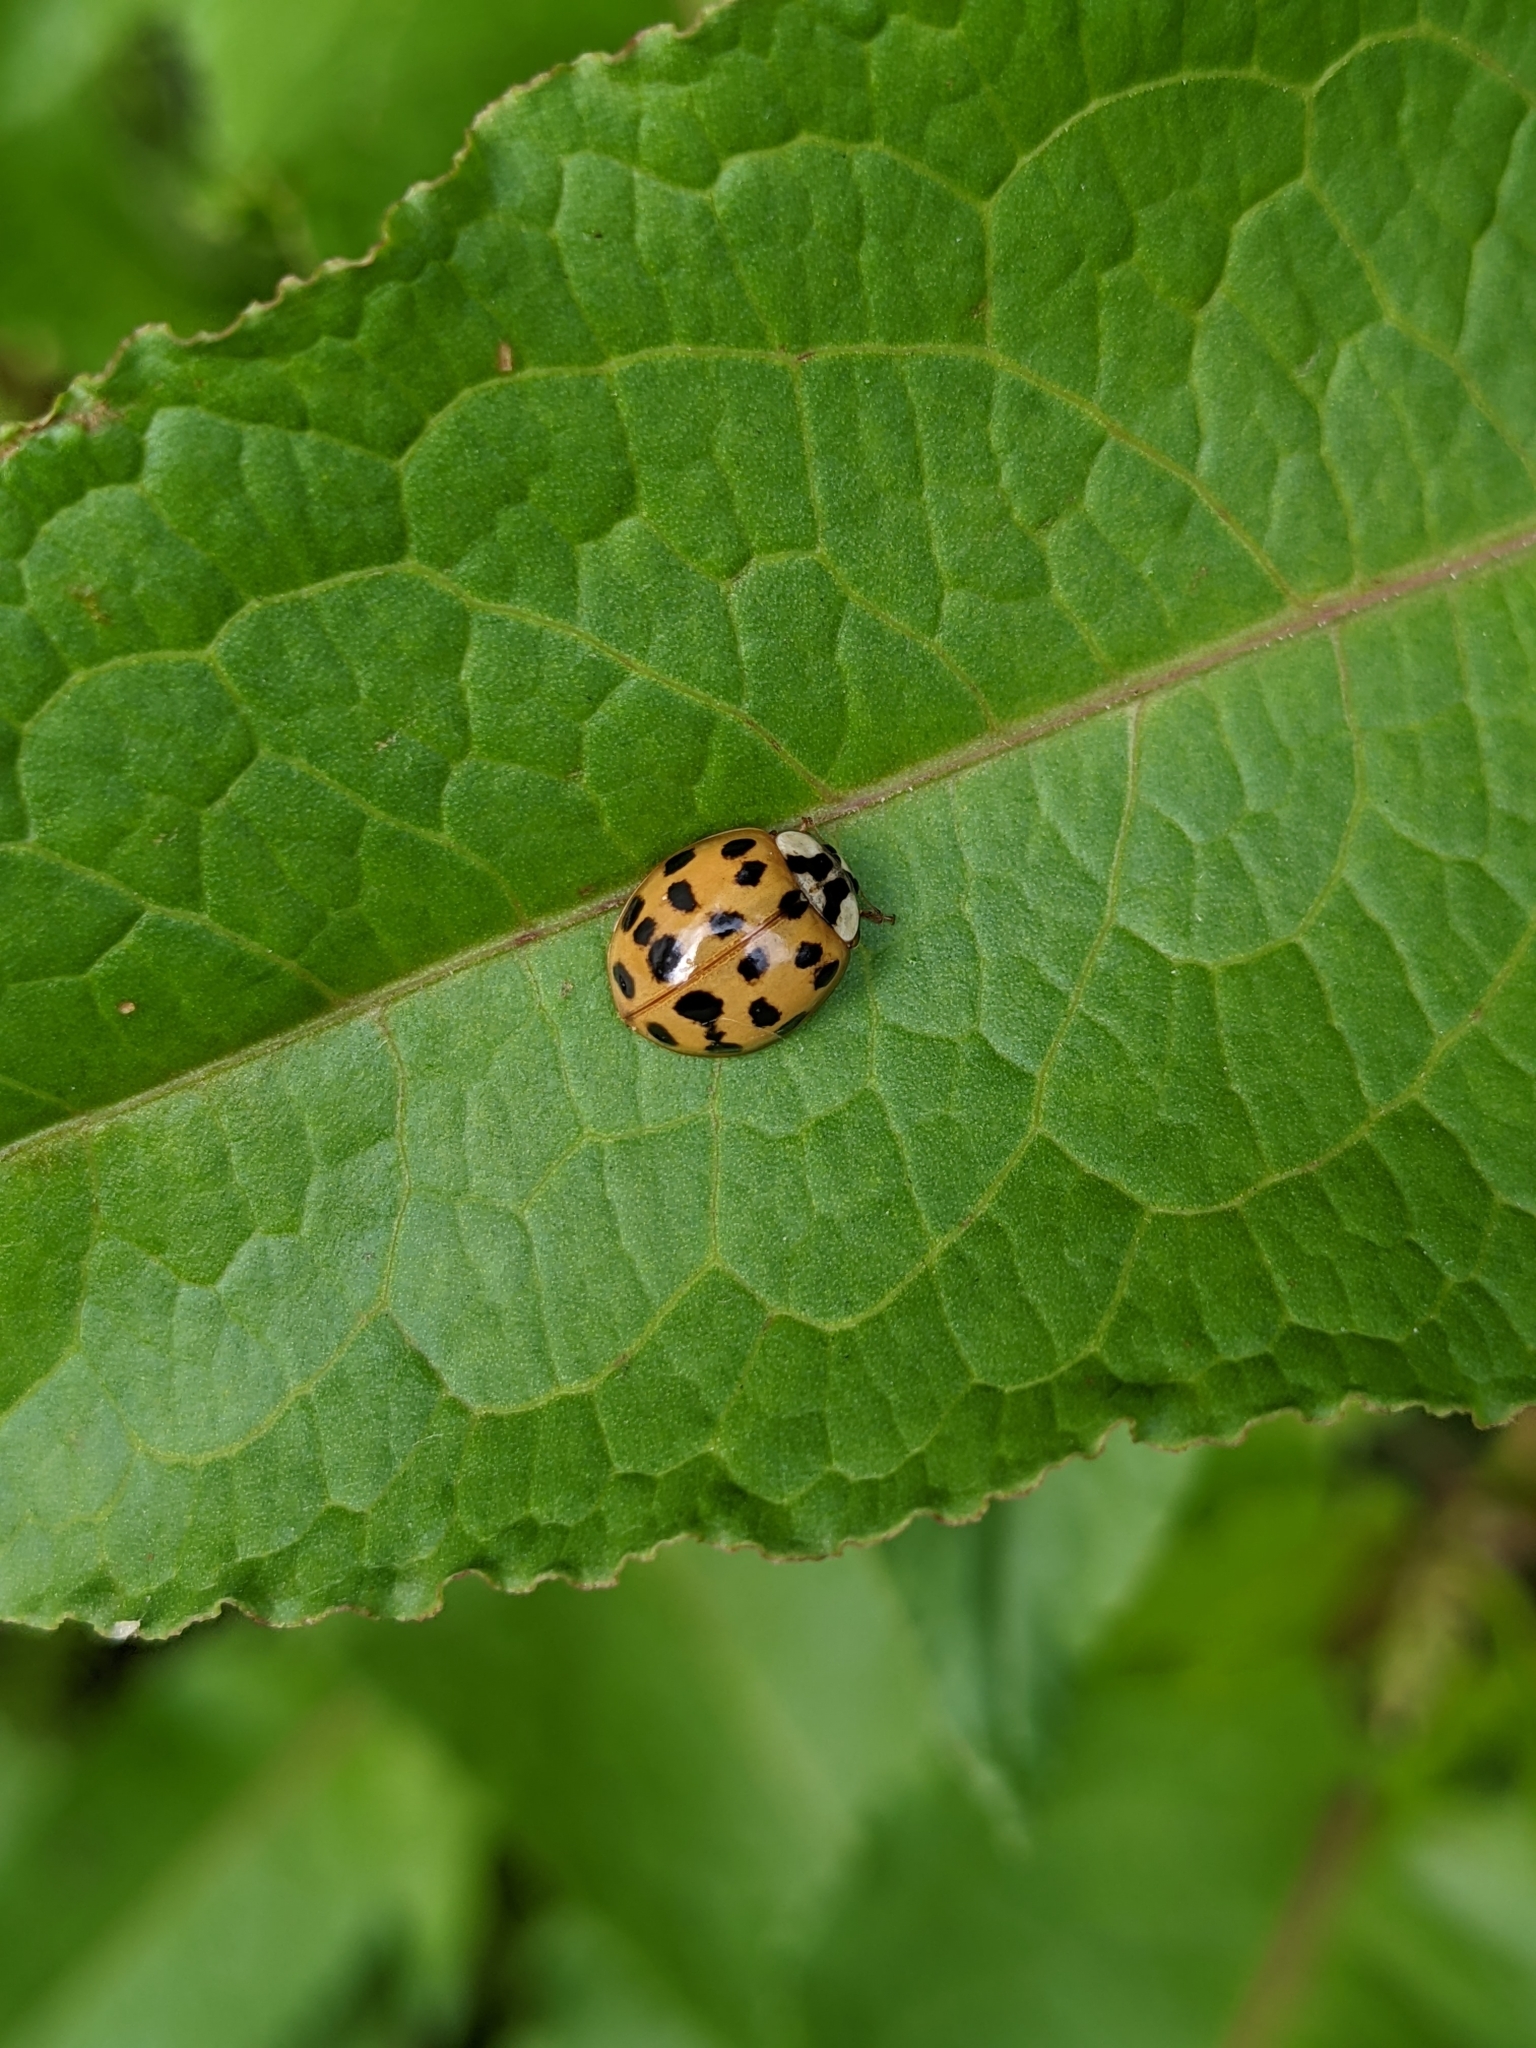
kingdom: Animalia
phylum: Arthropoda
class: Insecta
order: Coleoptera
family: Coccinellidae
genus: Harmonia
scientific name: Harmonia axyridis
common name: Harlequin ladybird
